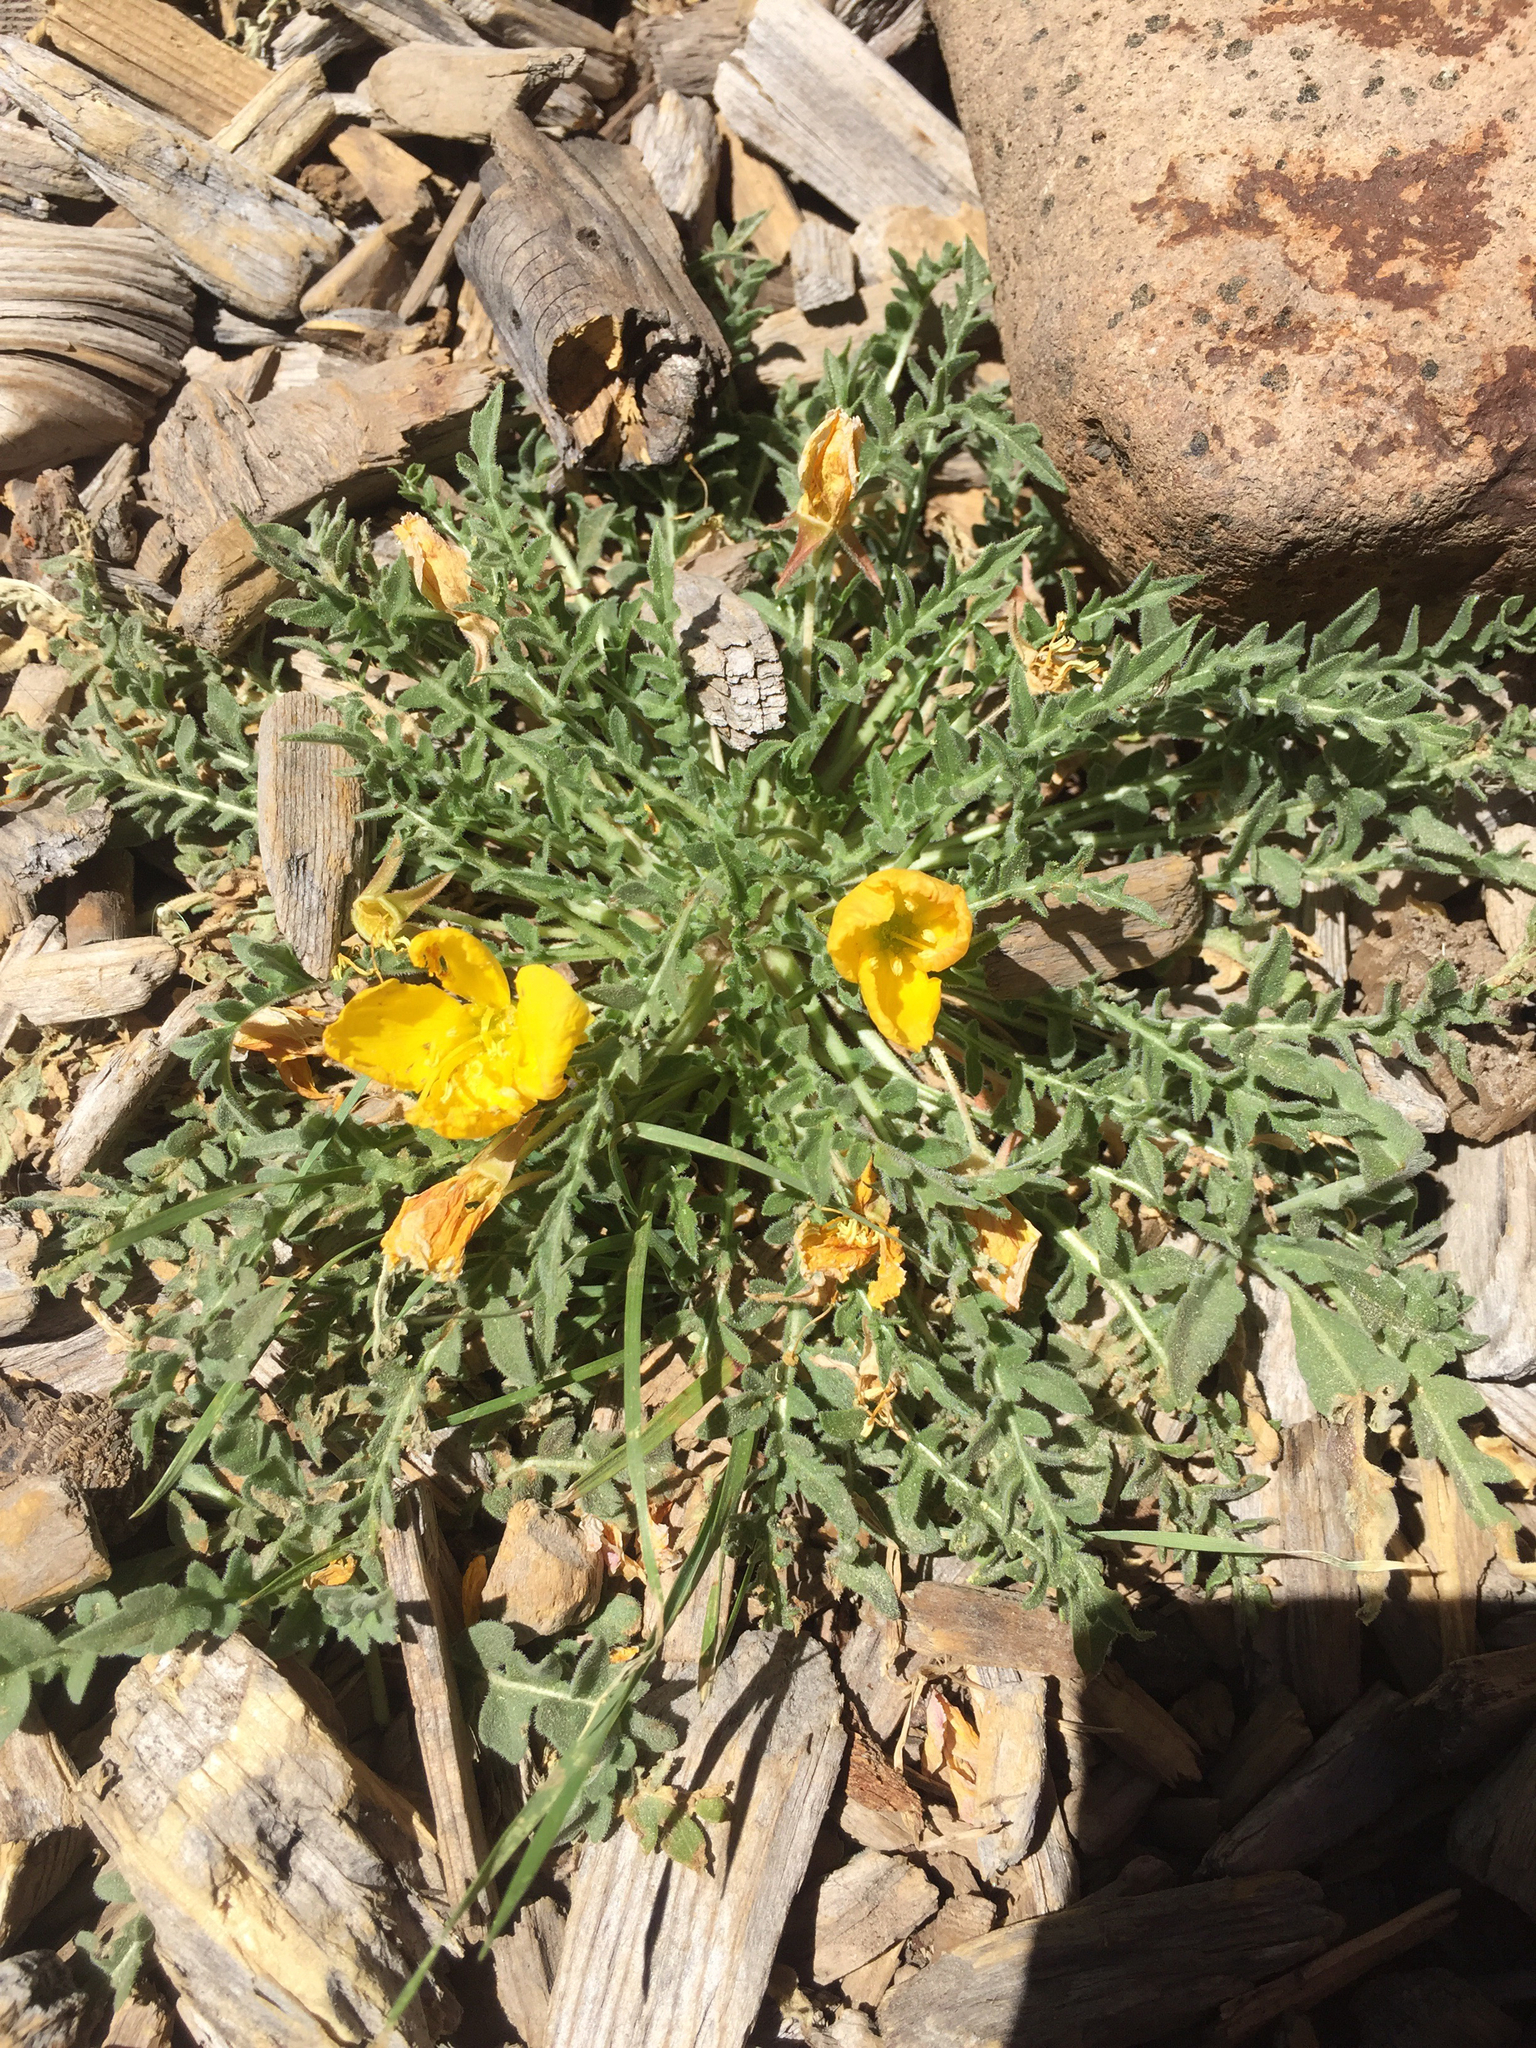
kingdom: Plantae
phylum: Tracheophyta
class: Magnoliopsida
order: Myrtales
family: Onagraceae
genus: Taraxia
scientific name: Taraxia tanacetifolia
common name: Tansyleaf evening primrose
